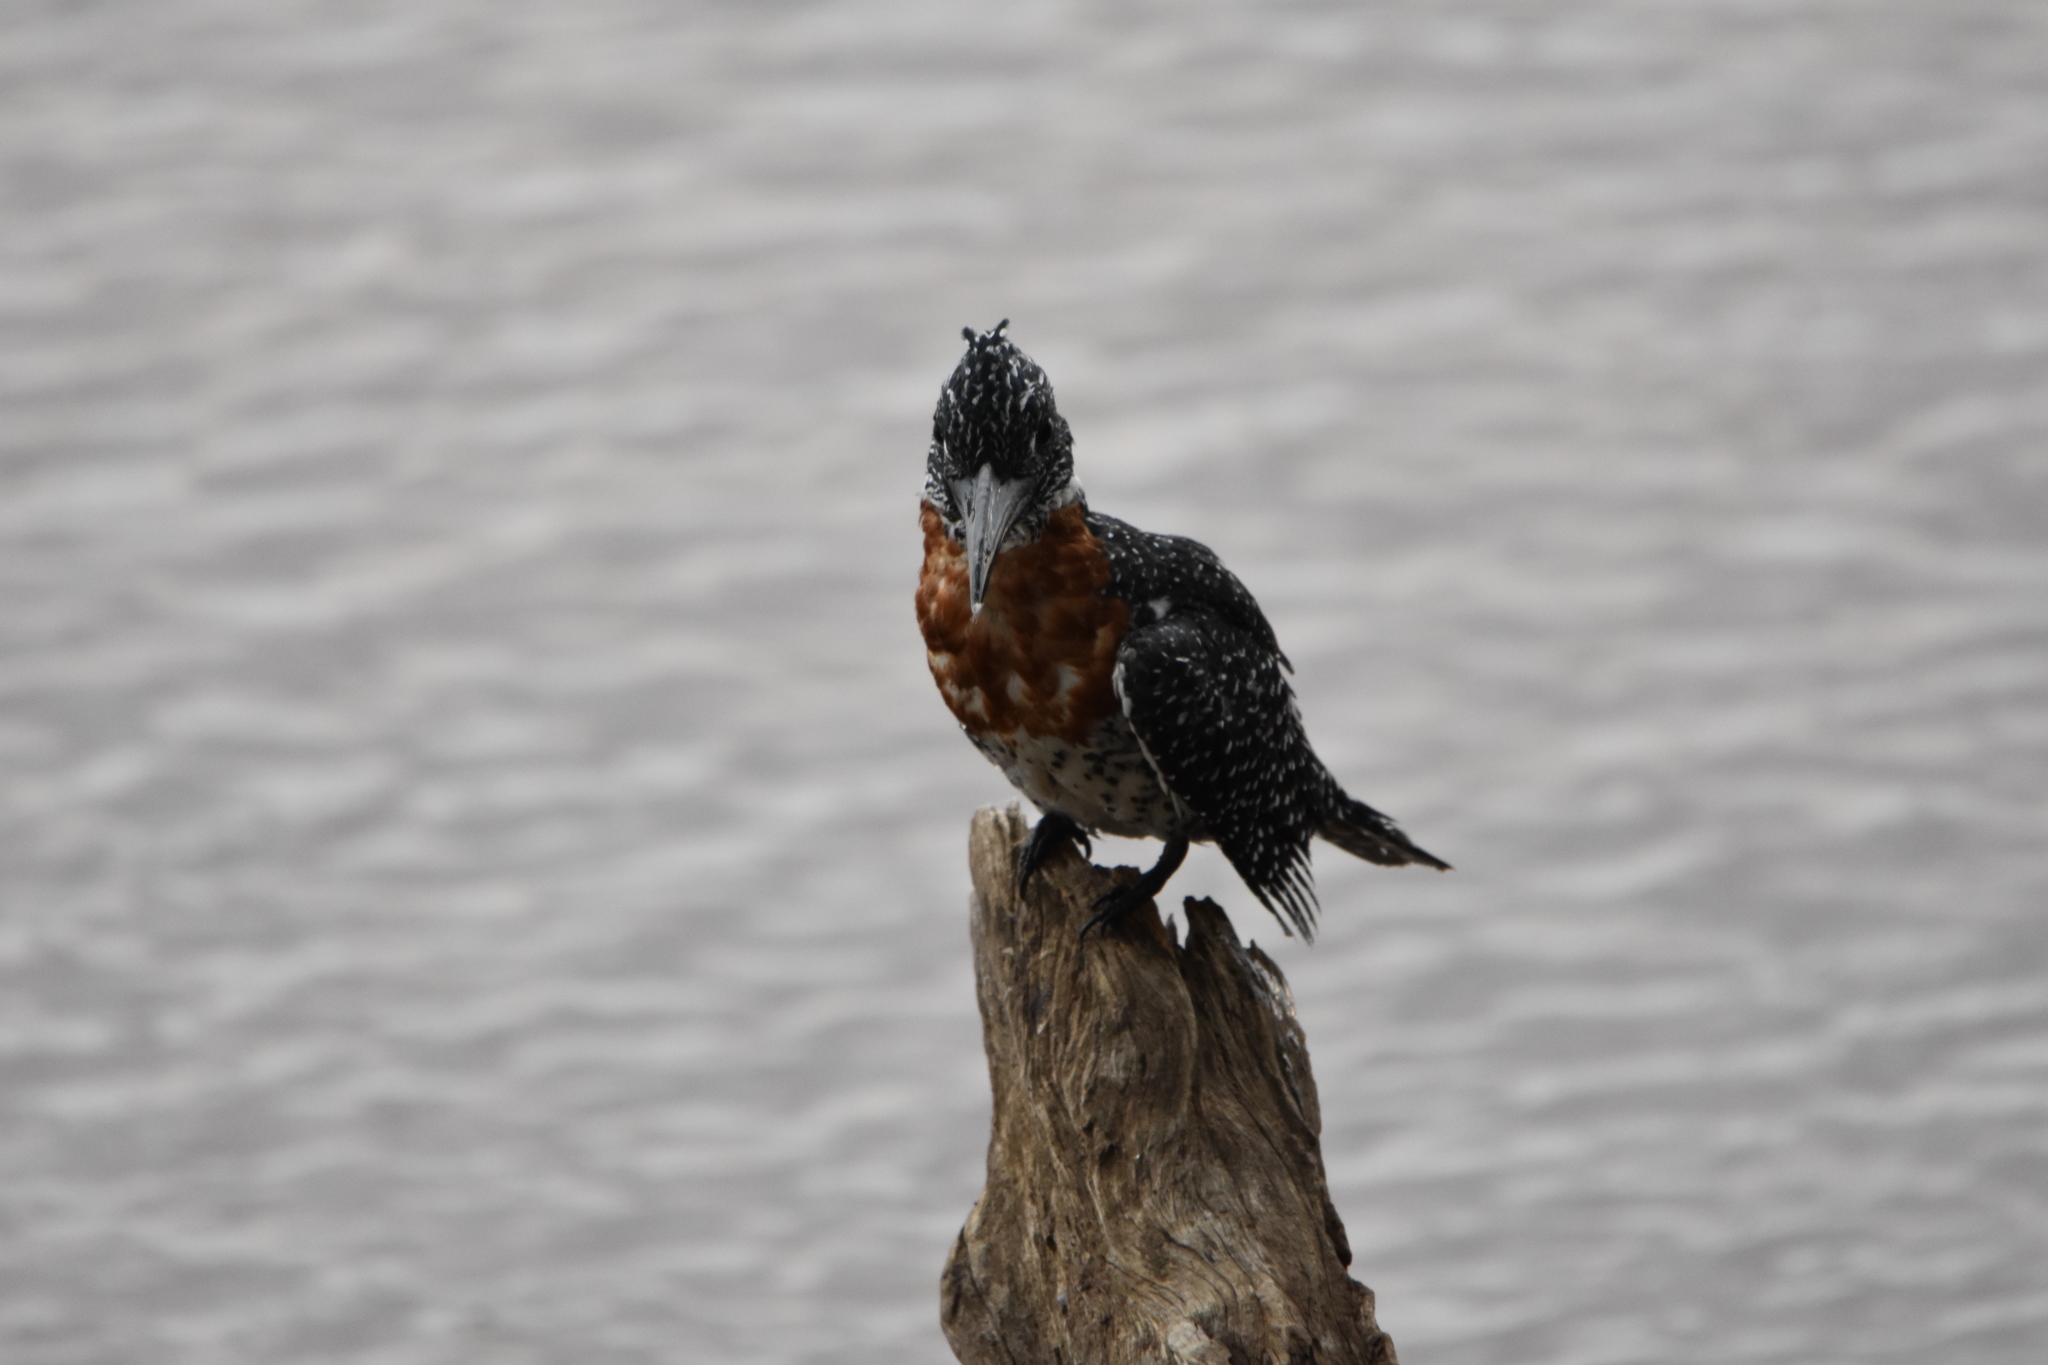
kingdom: Animalia
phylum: Chordata
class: Aves
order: Coraciiformes
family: Alcedinidae
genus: Megaceryle
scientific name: Megaceryle maxima
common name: Giant kingfisher
